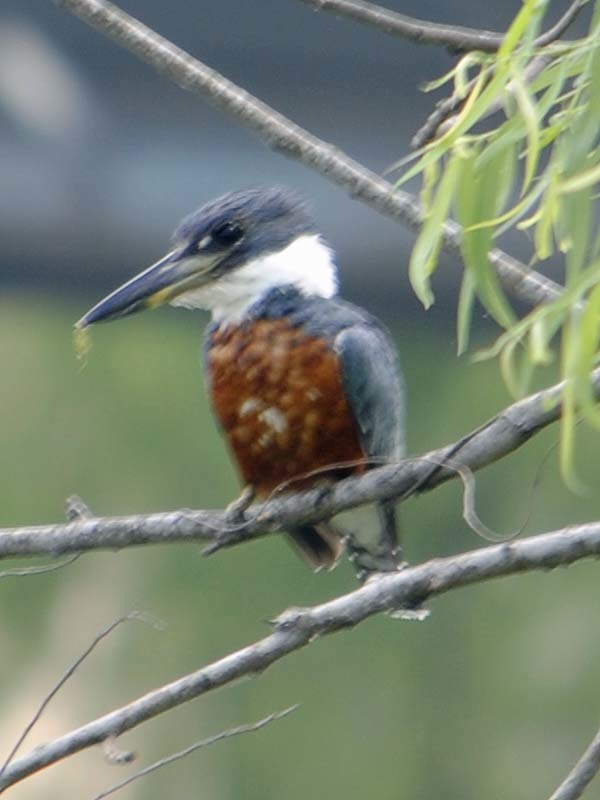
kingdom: Animalia
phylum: Chordata
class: Aves
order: Coraciiformes
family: Alcedinidae
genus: Megaceryle
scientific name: Megaceryle torquata
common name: Ringed kingfisher
